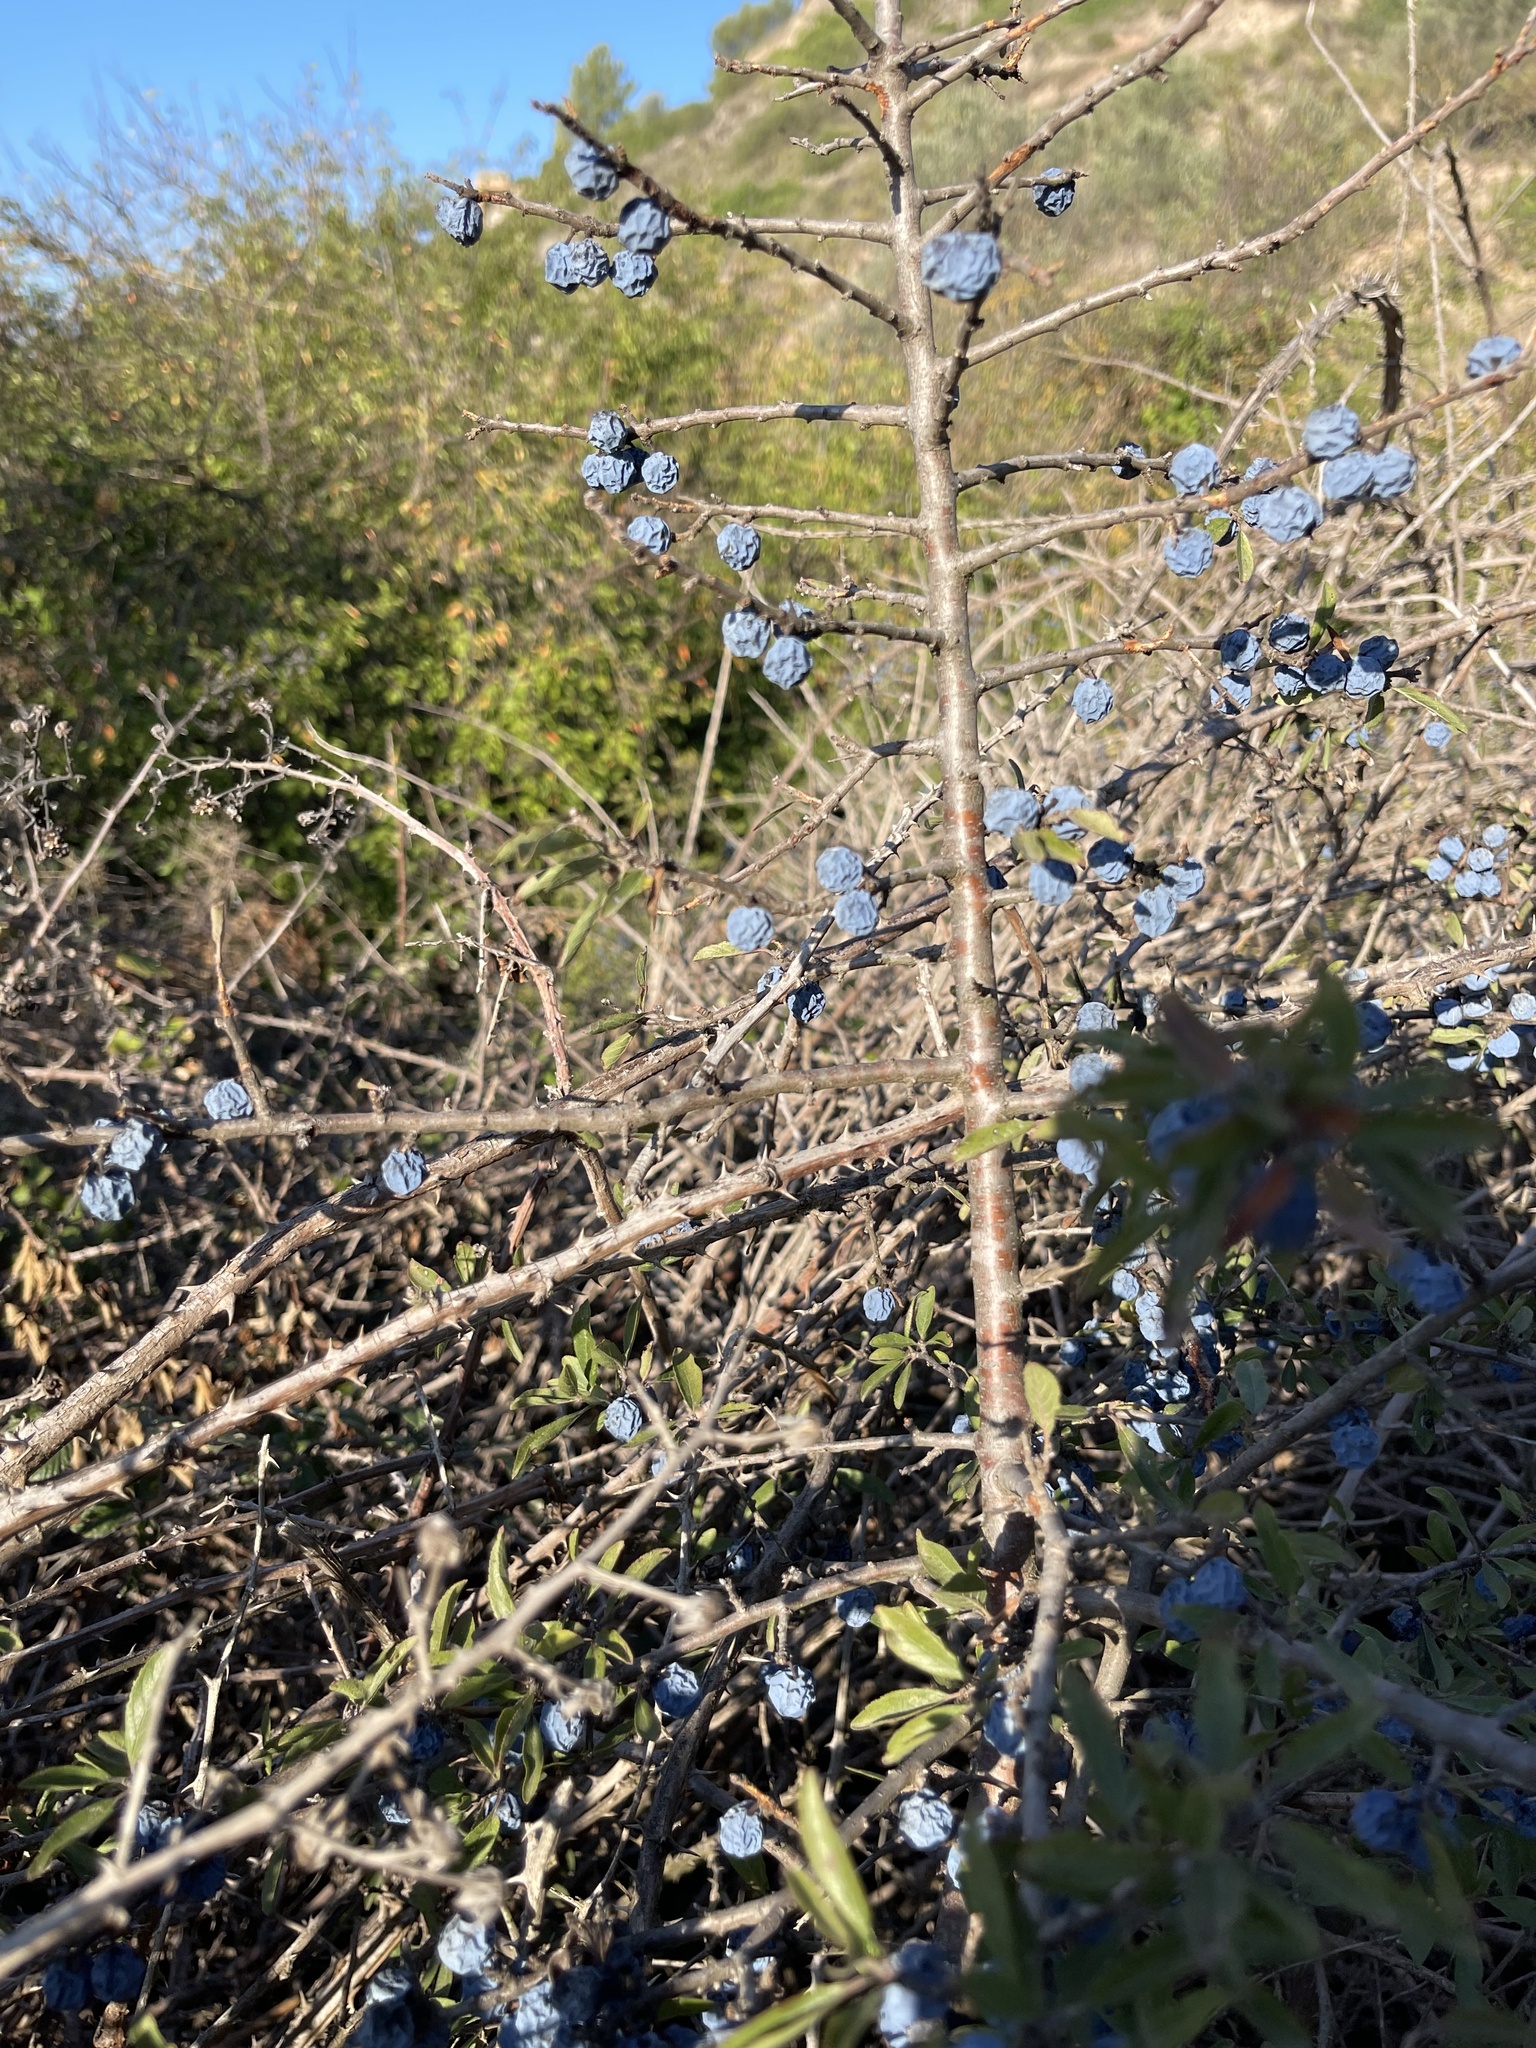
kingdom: Plantae
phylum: Tracheophyta
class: Magnoliopsida
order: Rosales
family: Rosaceae
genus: Prunus
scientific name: Prunus spinosa
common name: Blackthorn
